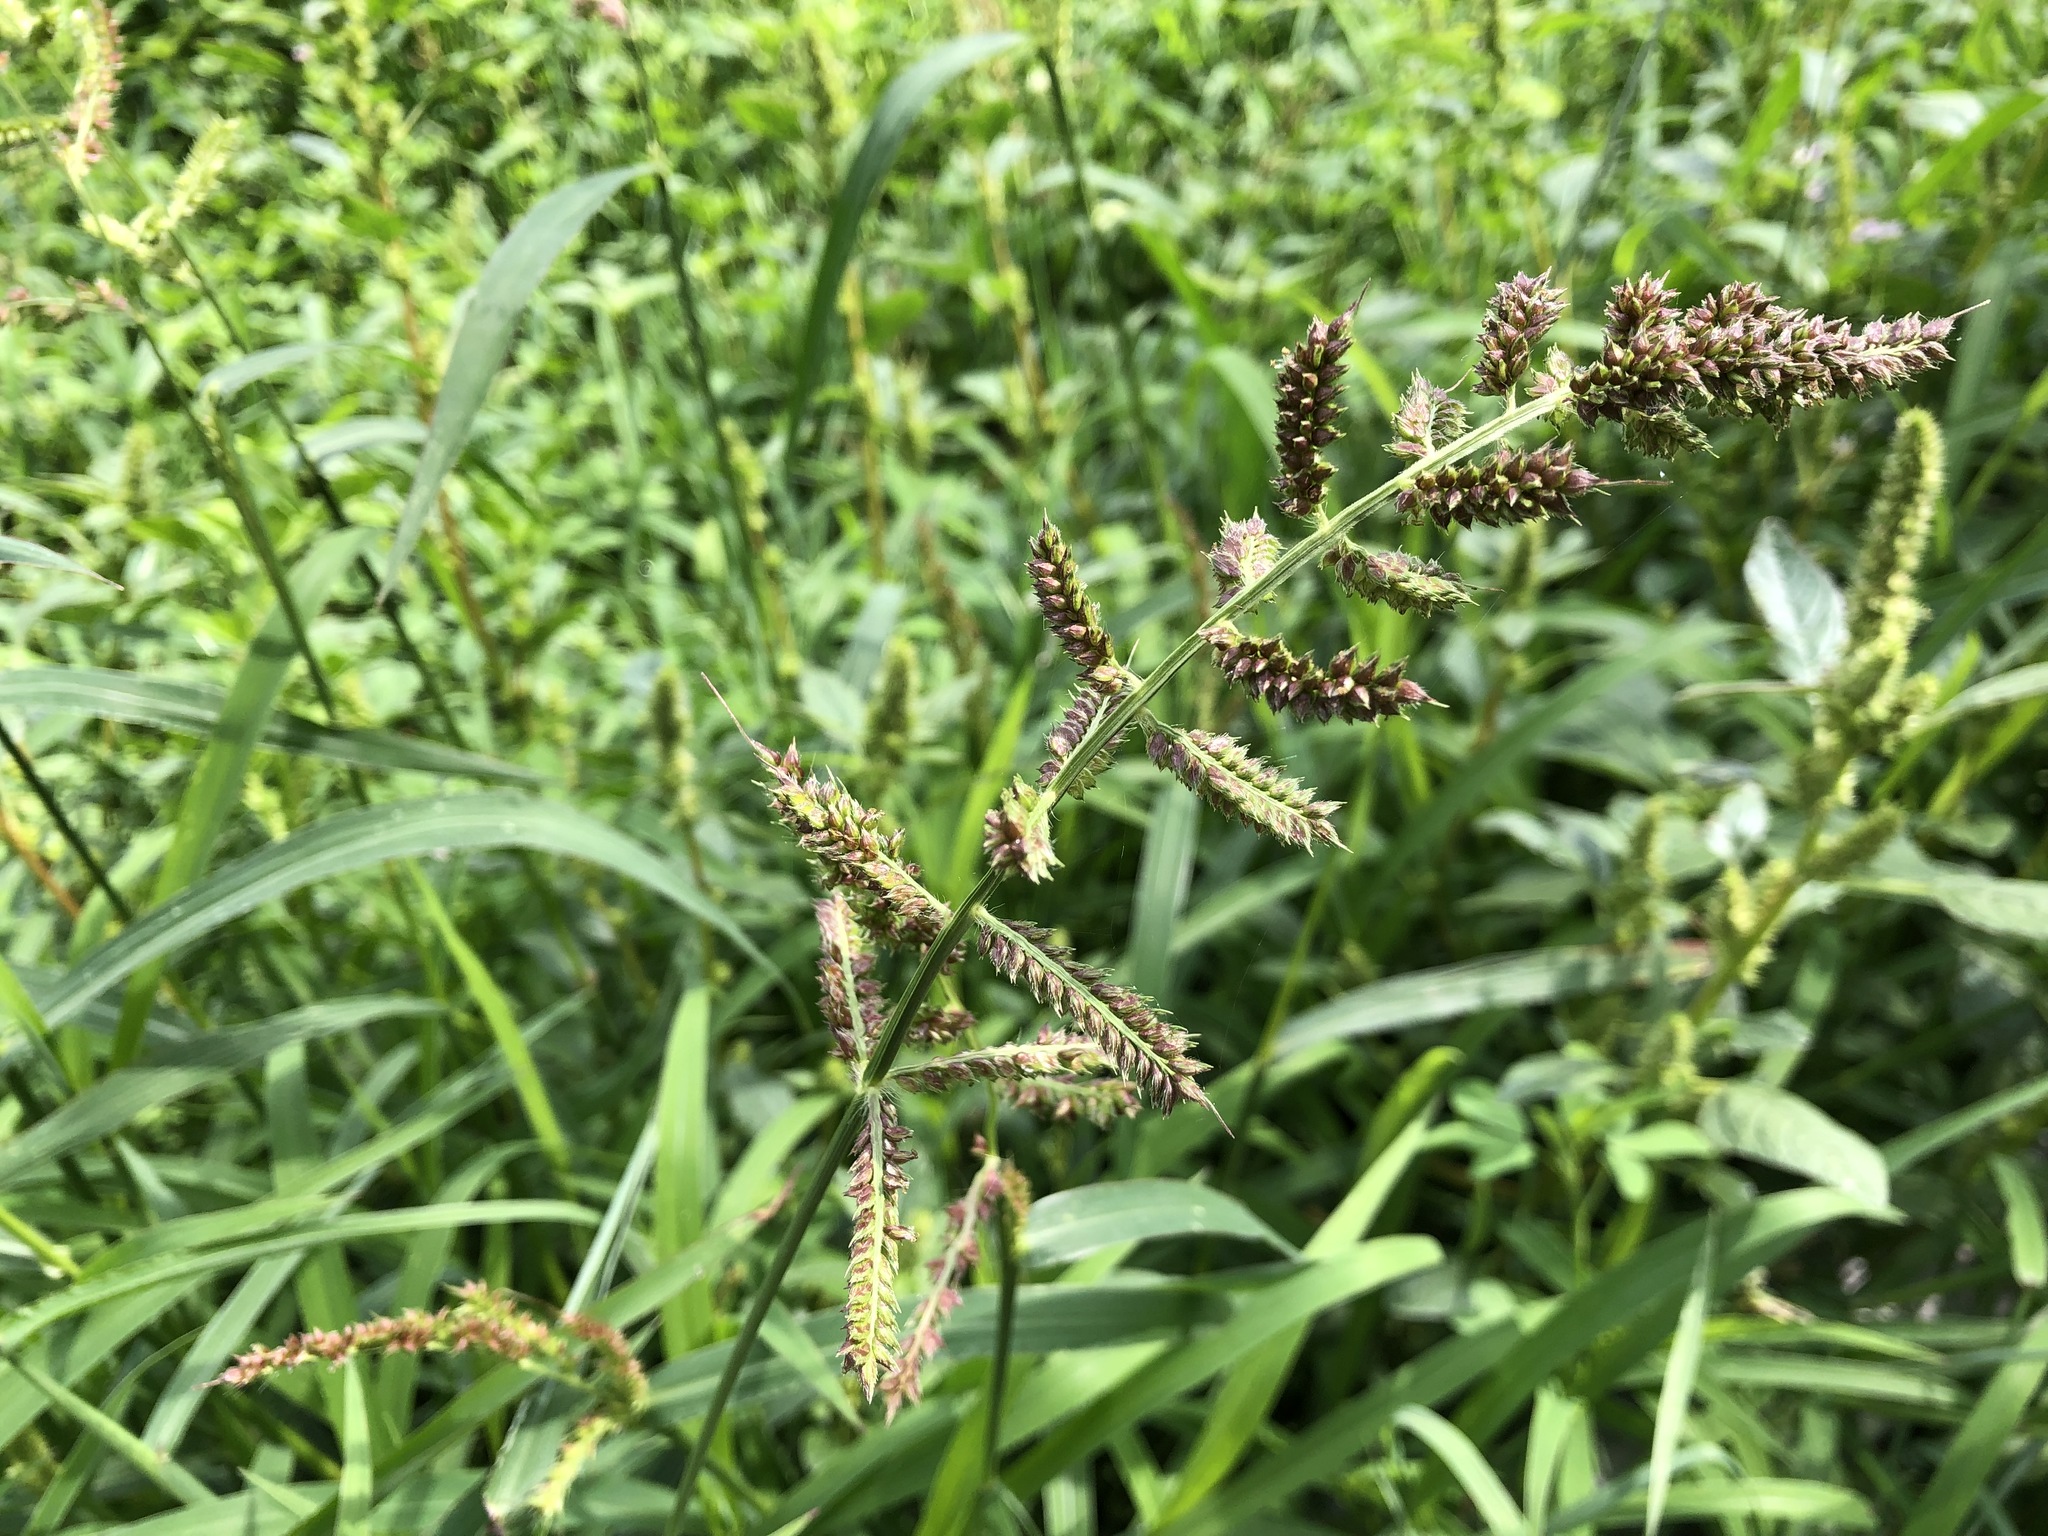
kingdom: Plantae
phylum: Tracheophyta
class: Liliopsida
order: Poales
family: Poaceae
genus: Echinochloa
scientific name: Echinochloa crus-galli
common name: Cockspur
